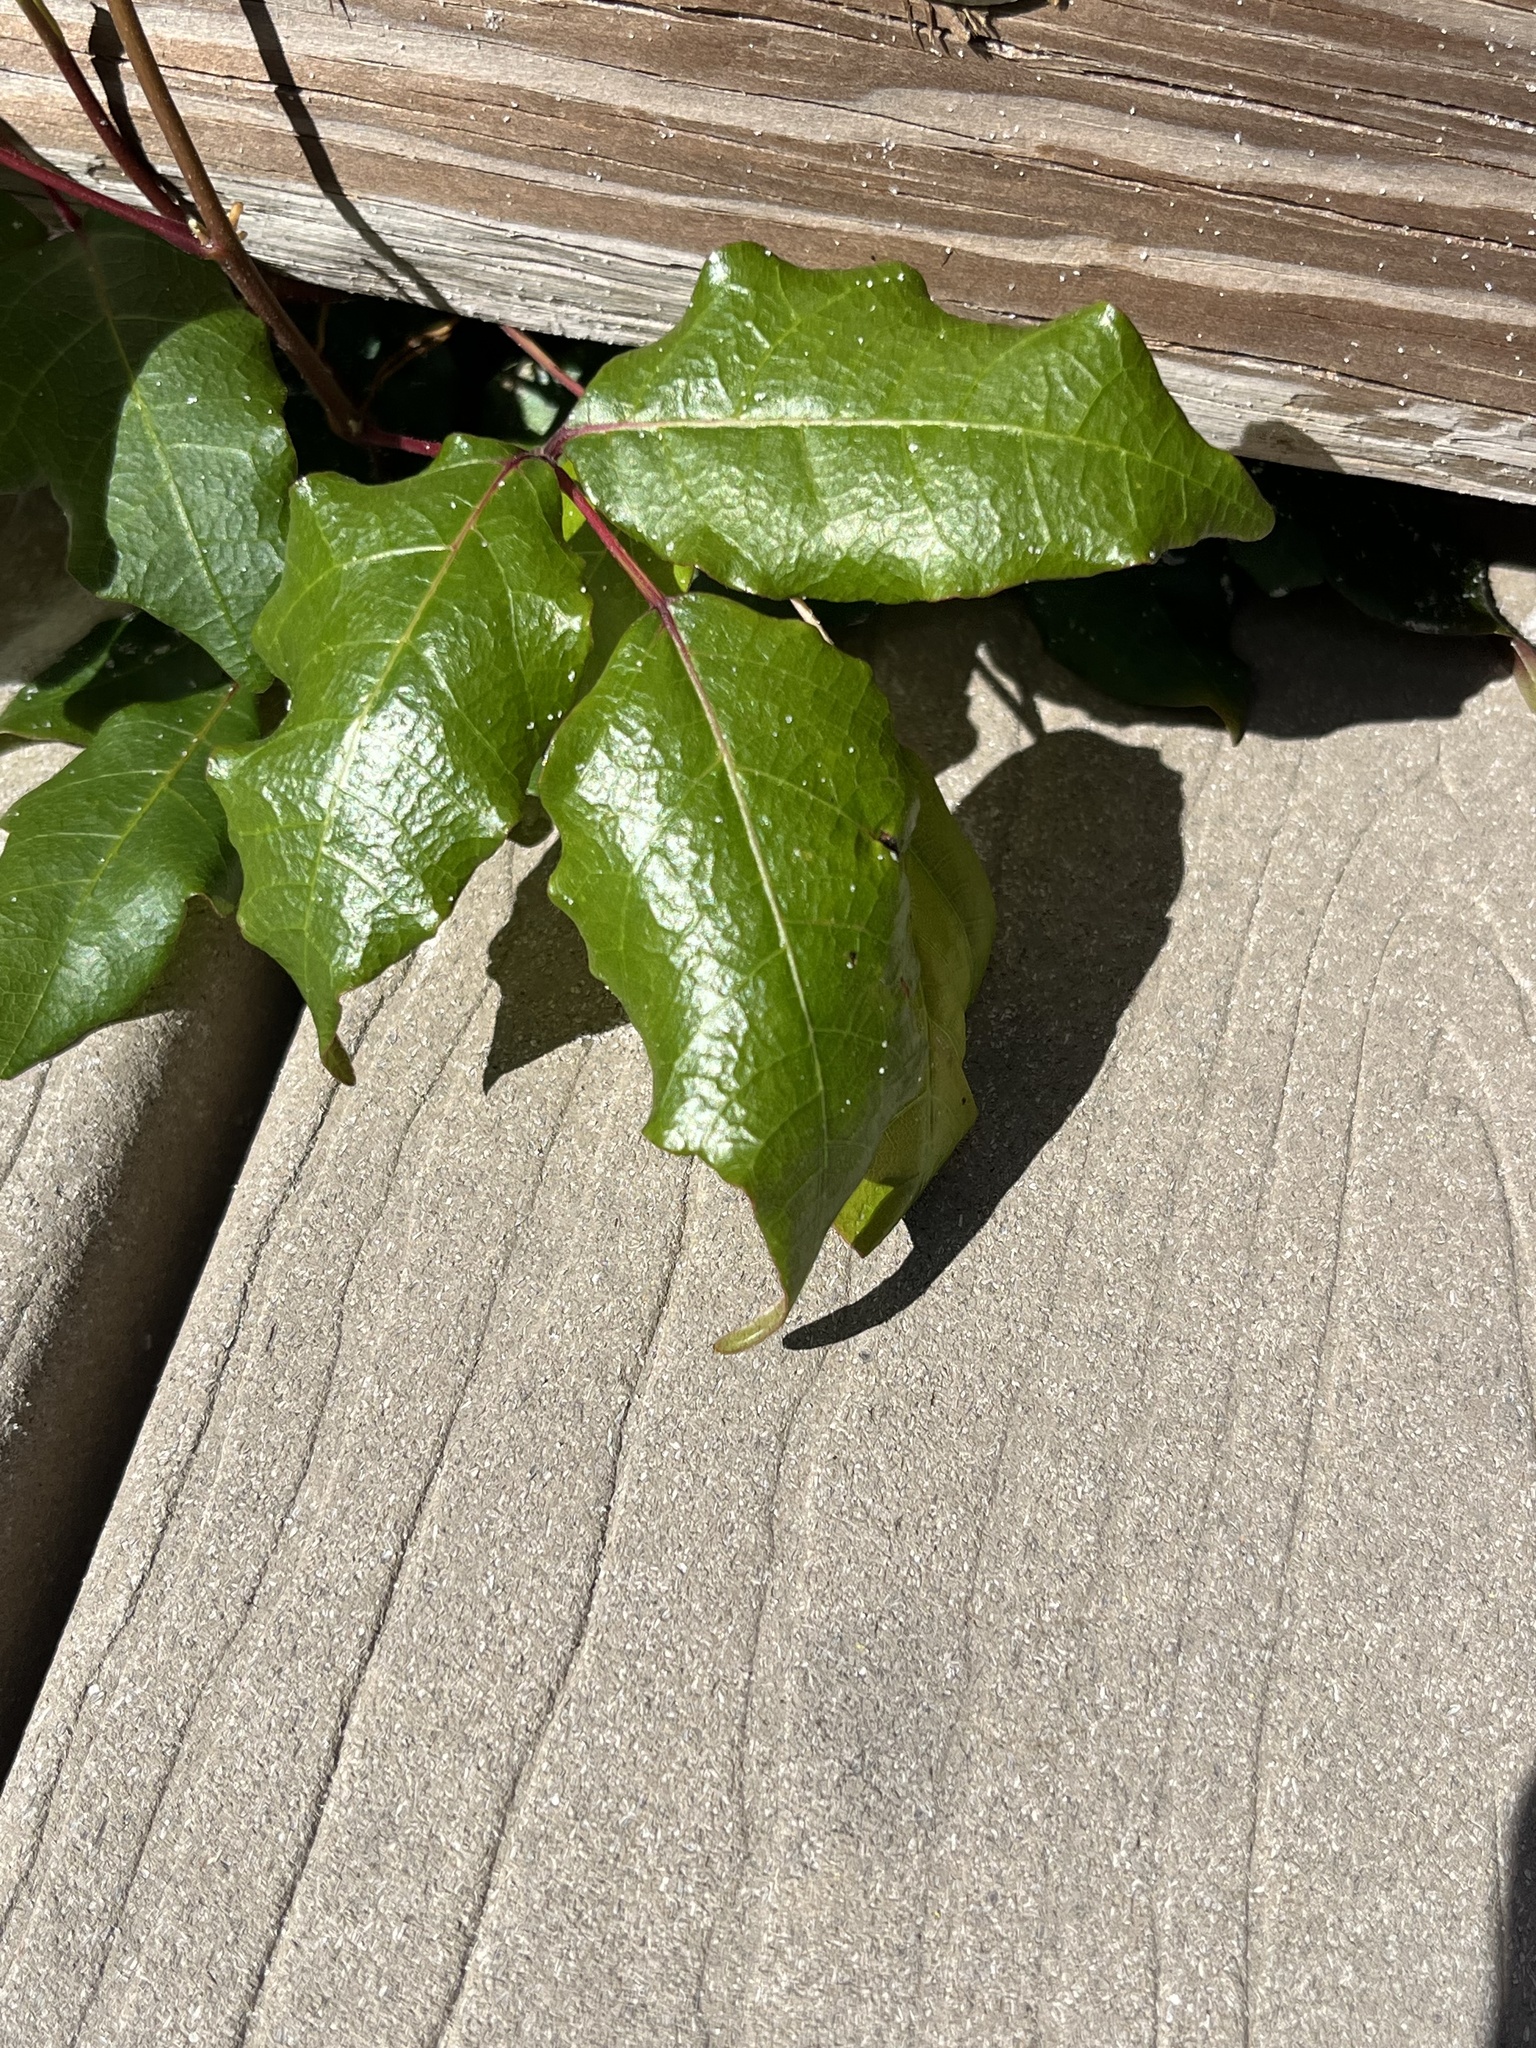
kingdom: Plantae
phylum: Tracheophyta
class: Magnoliopsida
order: Sapindales
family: Anacardiaceae
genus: Toxicodendron
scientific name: Toxicodendron radicans
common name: Poison ivy
